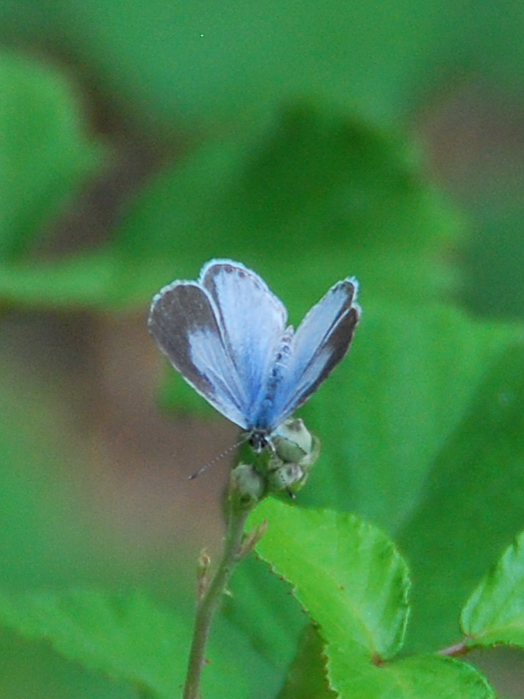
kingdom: Animalia
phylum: Arthropoda
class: Insecta
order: Lepidoptera
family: Lycaenidae
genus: Celastrina
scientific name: Celastrina argiolus
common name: Holly blue
